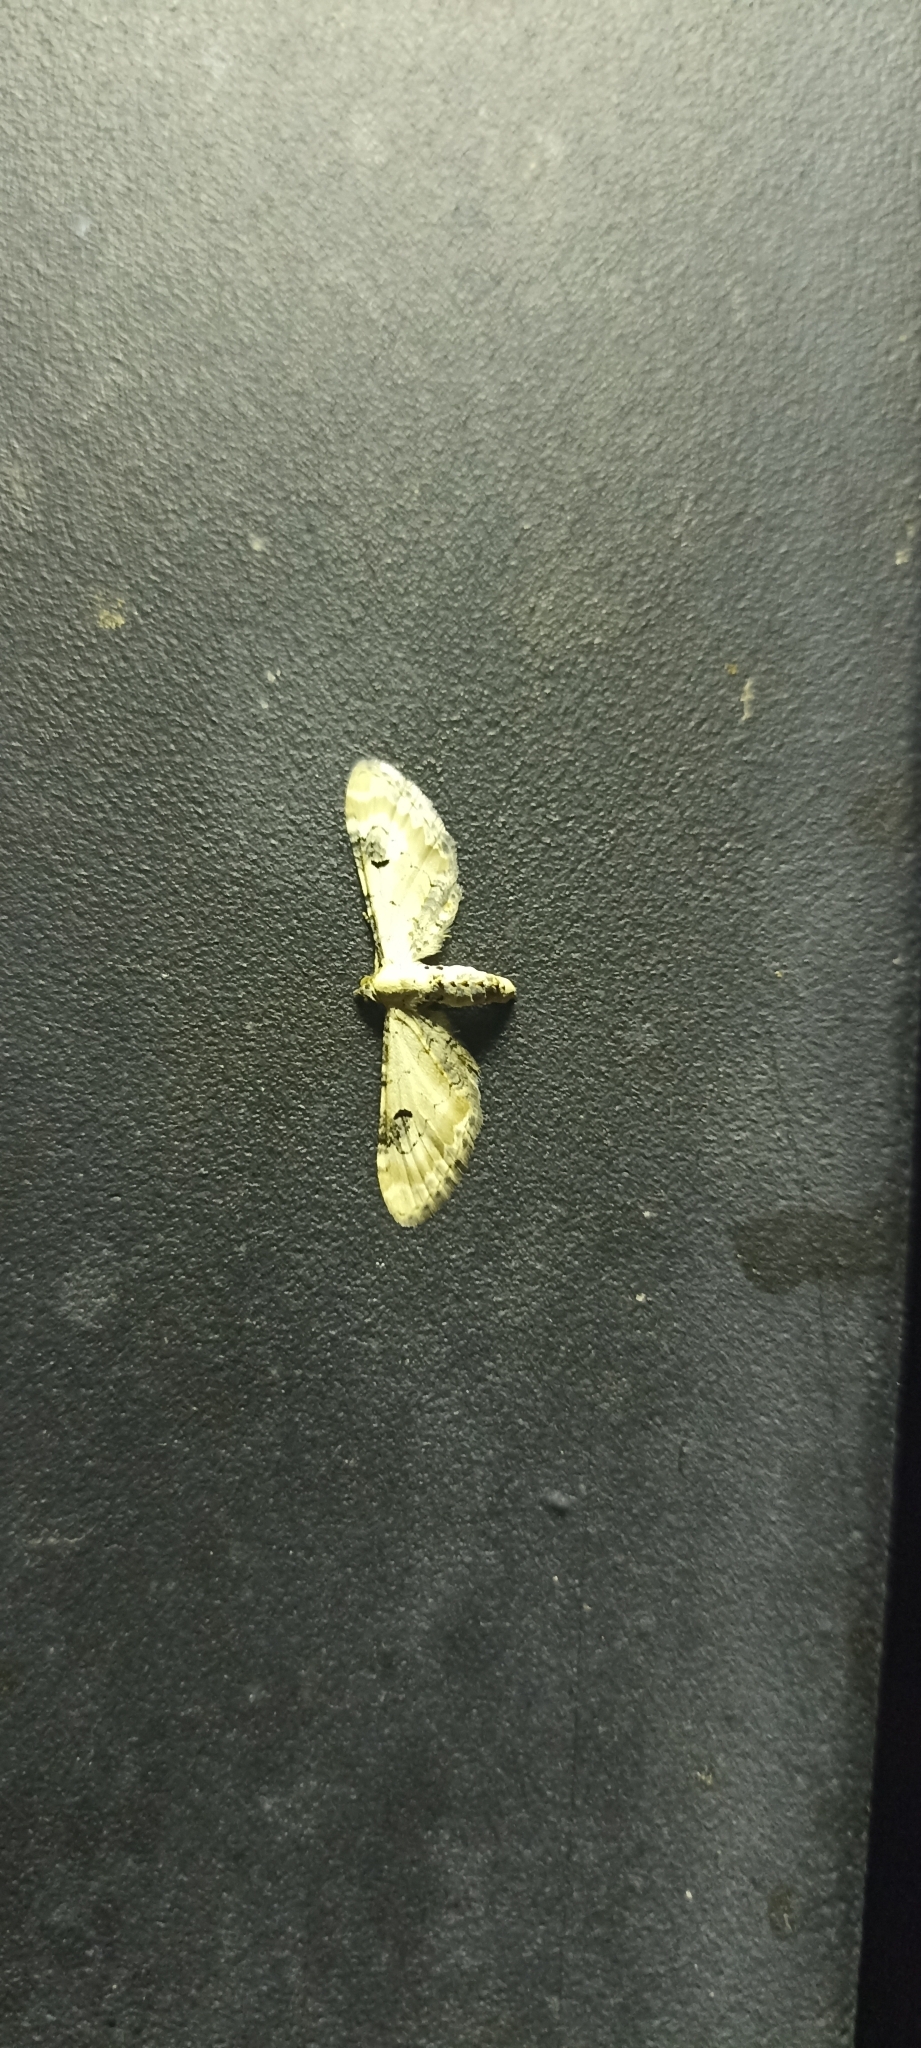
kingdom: Animalia
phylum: Arthropoda
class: Insecta
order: Lepidoptera
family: Geometridae
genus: Eupithecia
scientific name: Eupithecia centaureata
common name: Lime-speck pug
